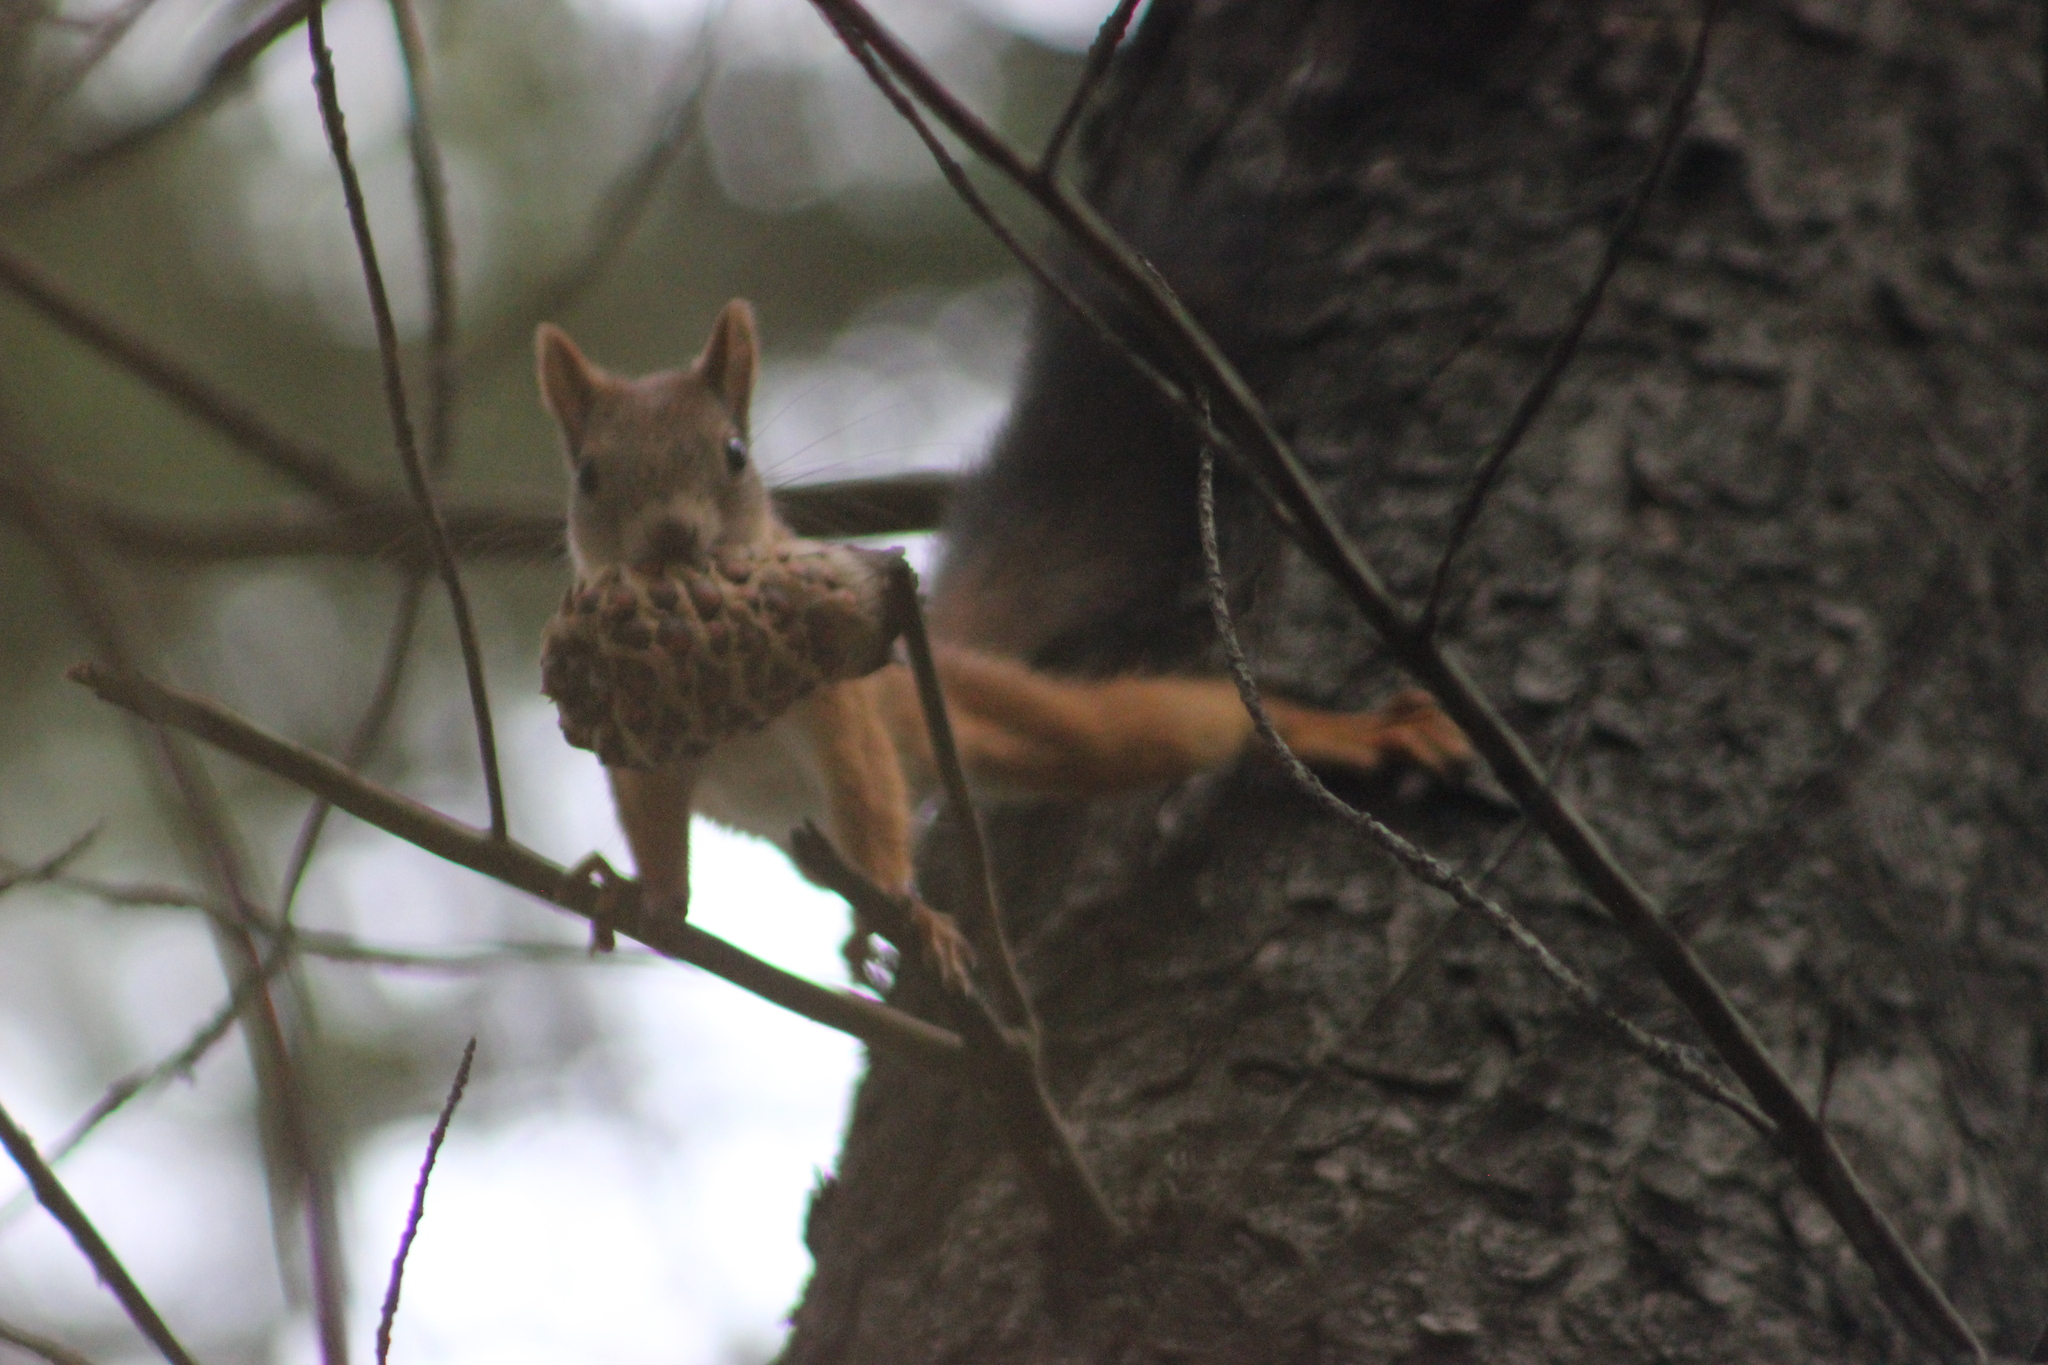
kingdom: Animalia
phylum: Chordata
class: Mammalia
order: Rodentia
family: Sciuridae
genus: Sciurus
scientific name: Sciurus vulgaris
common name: Eurasian red squirrel
